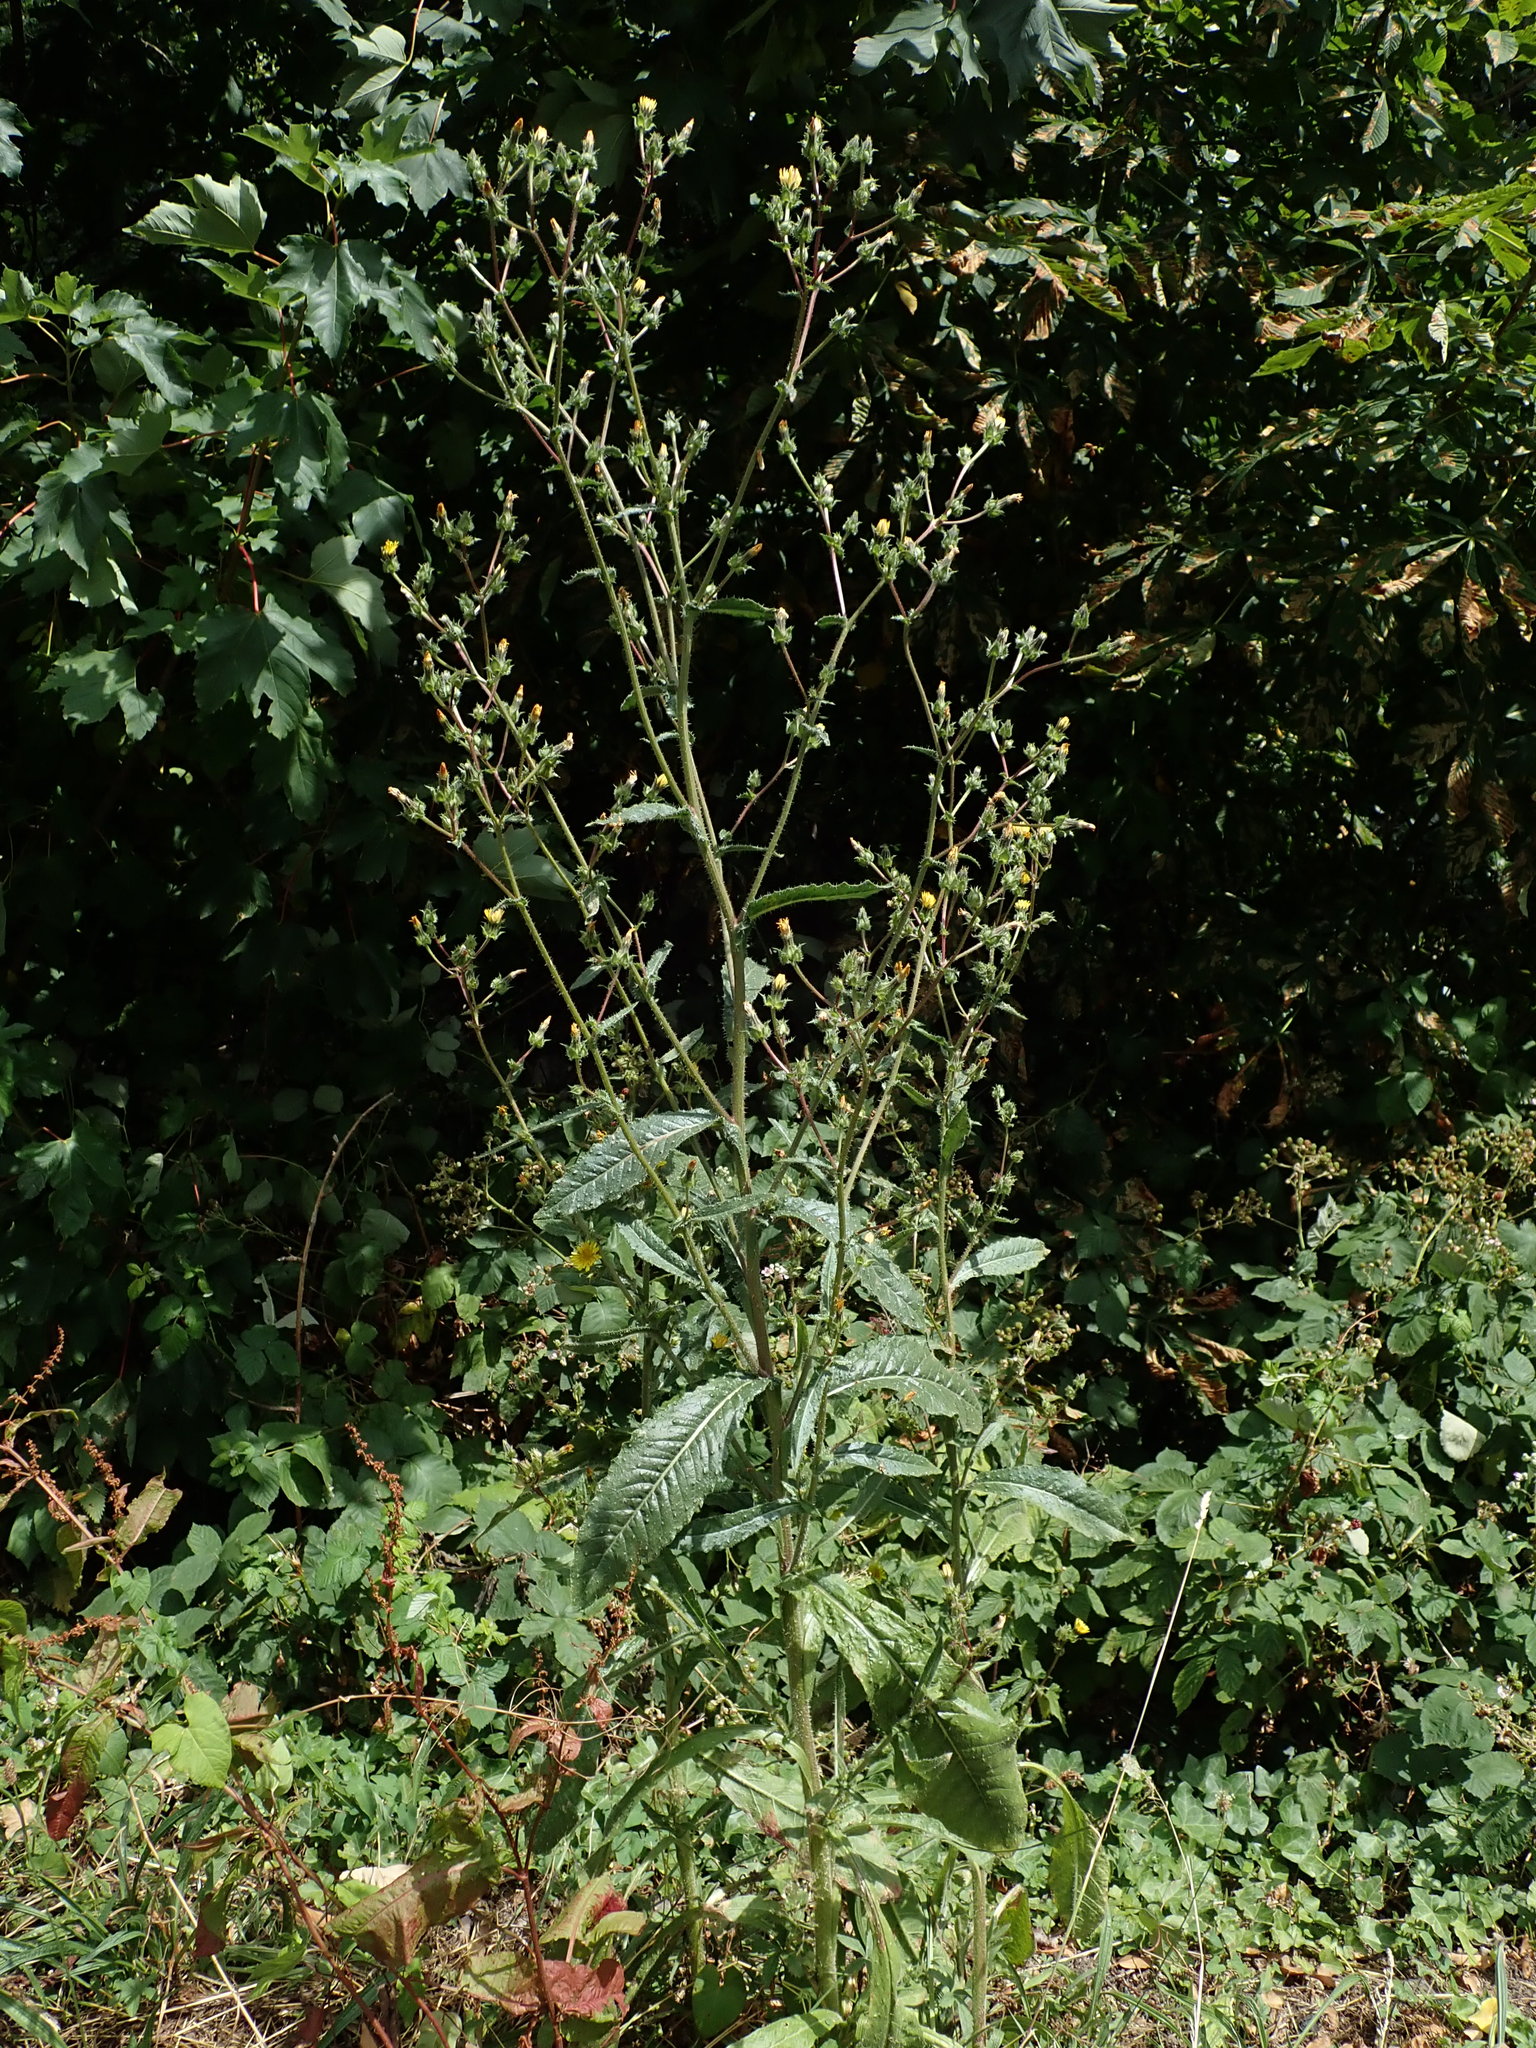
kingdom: Plantae
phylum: Tracheophyta
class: Magnoliopsida
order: Asterales
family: Asteraceae
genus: Helminthotheca
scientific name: Helminthotheca echioides
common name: Ox-tongue
